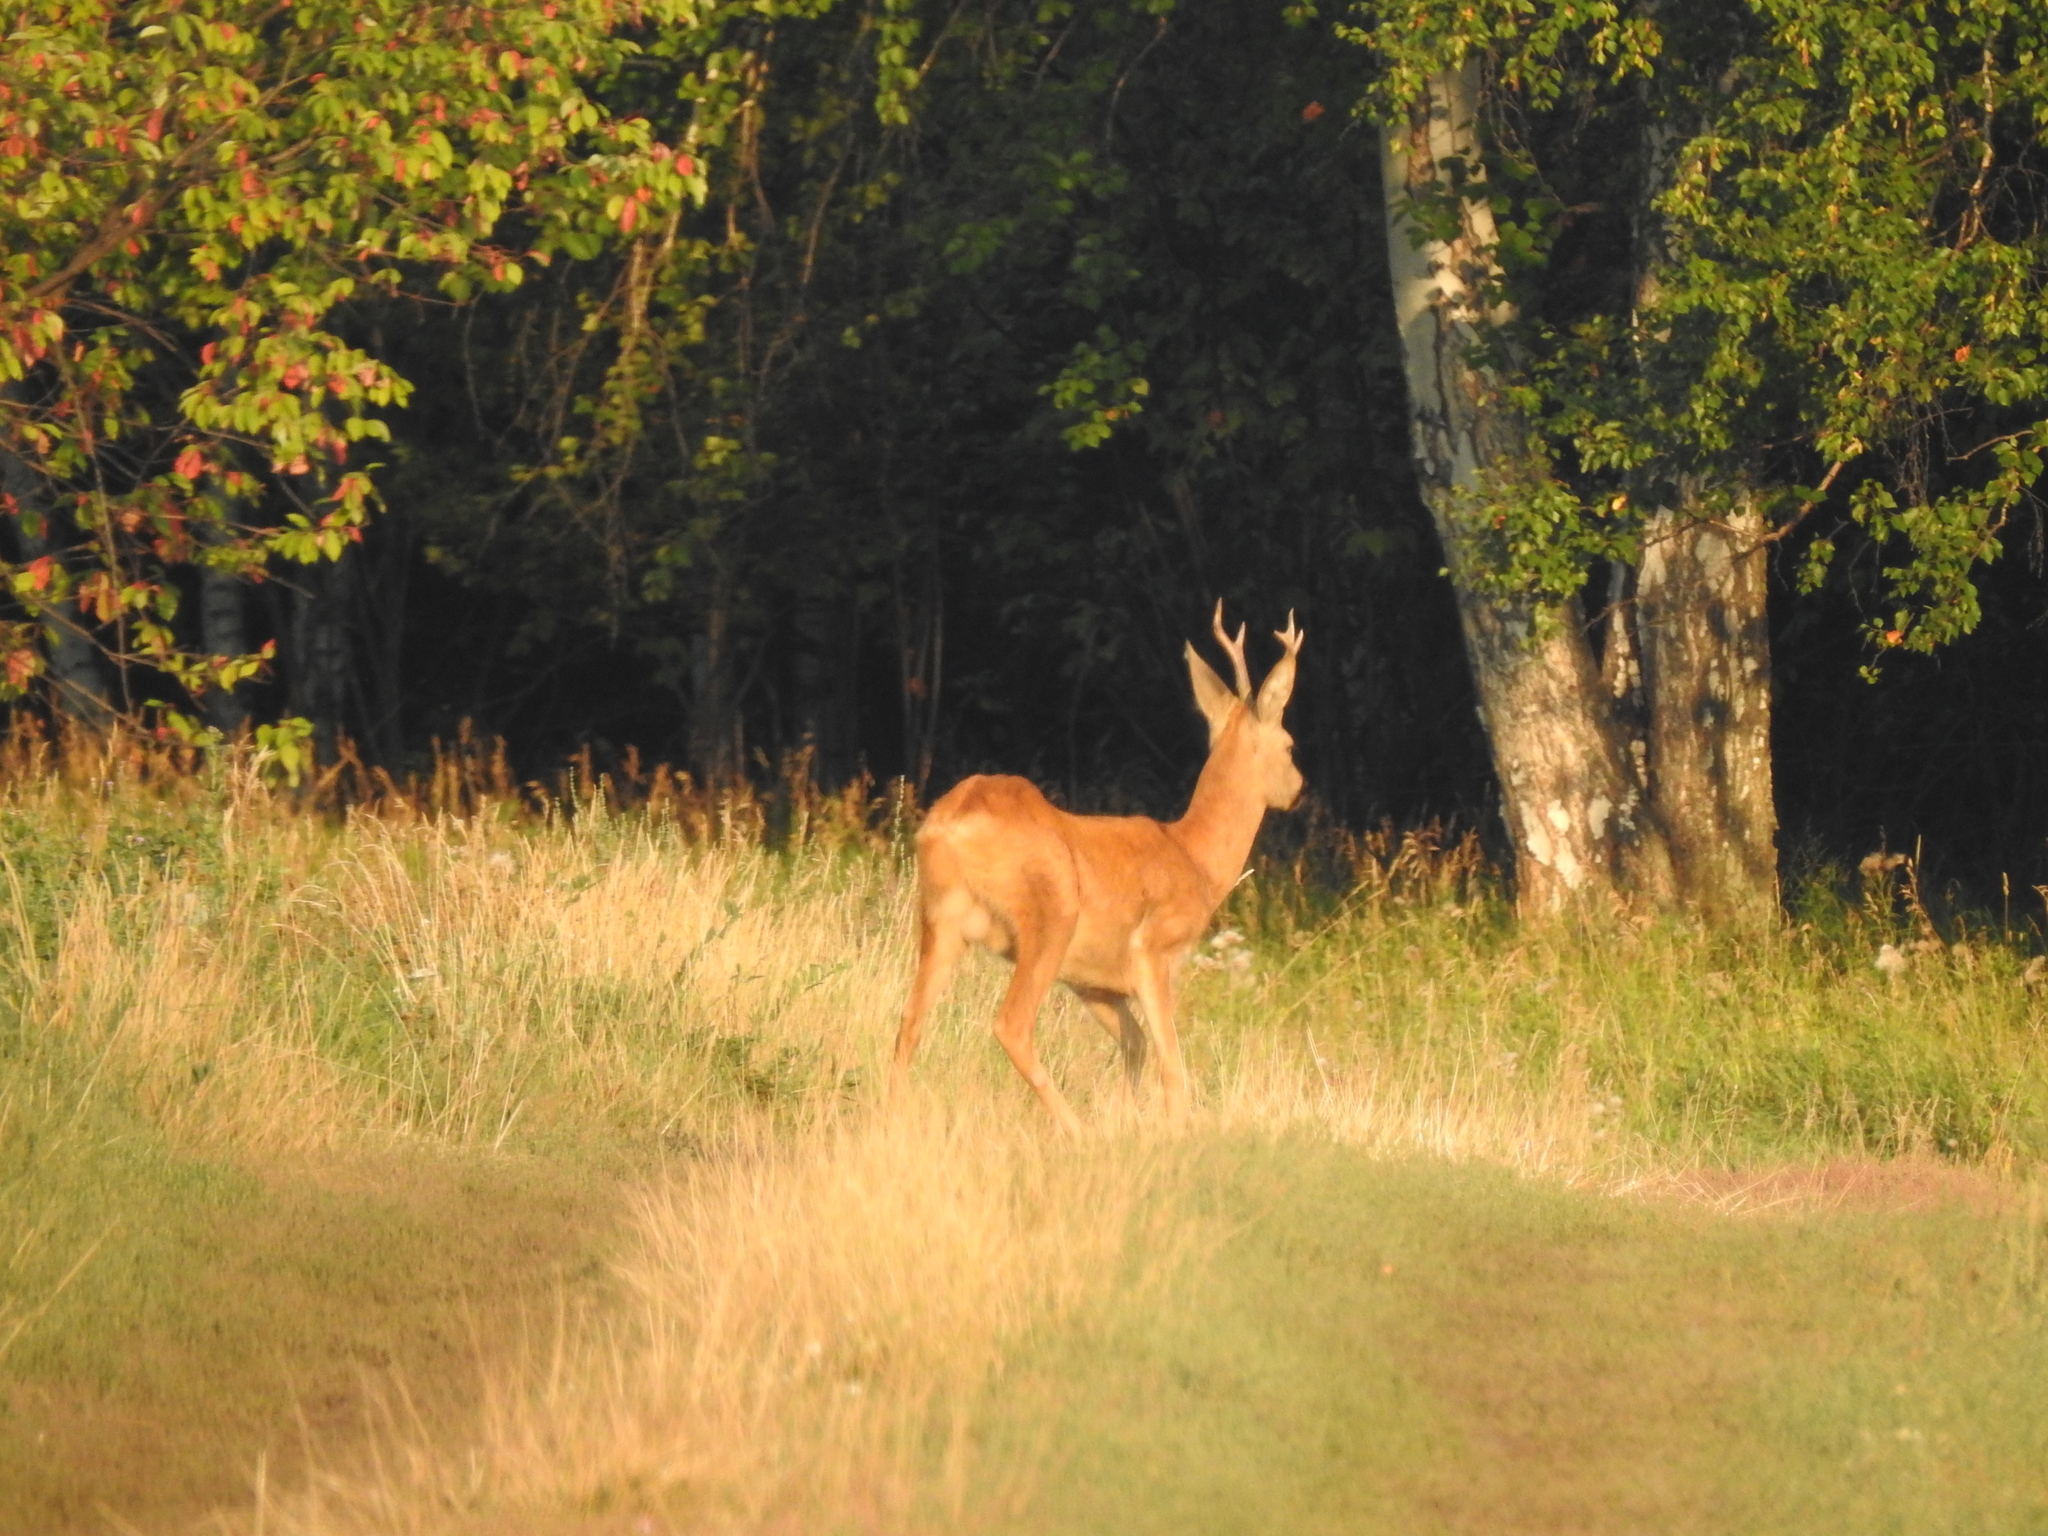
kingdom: Animalia
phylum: Chordata
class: Mammalia
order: Artiodactyla
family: Cervidae
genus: Capreolus
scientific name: Capreolus pygargus
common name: Siberian roe
